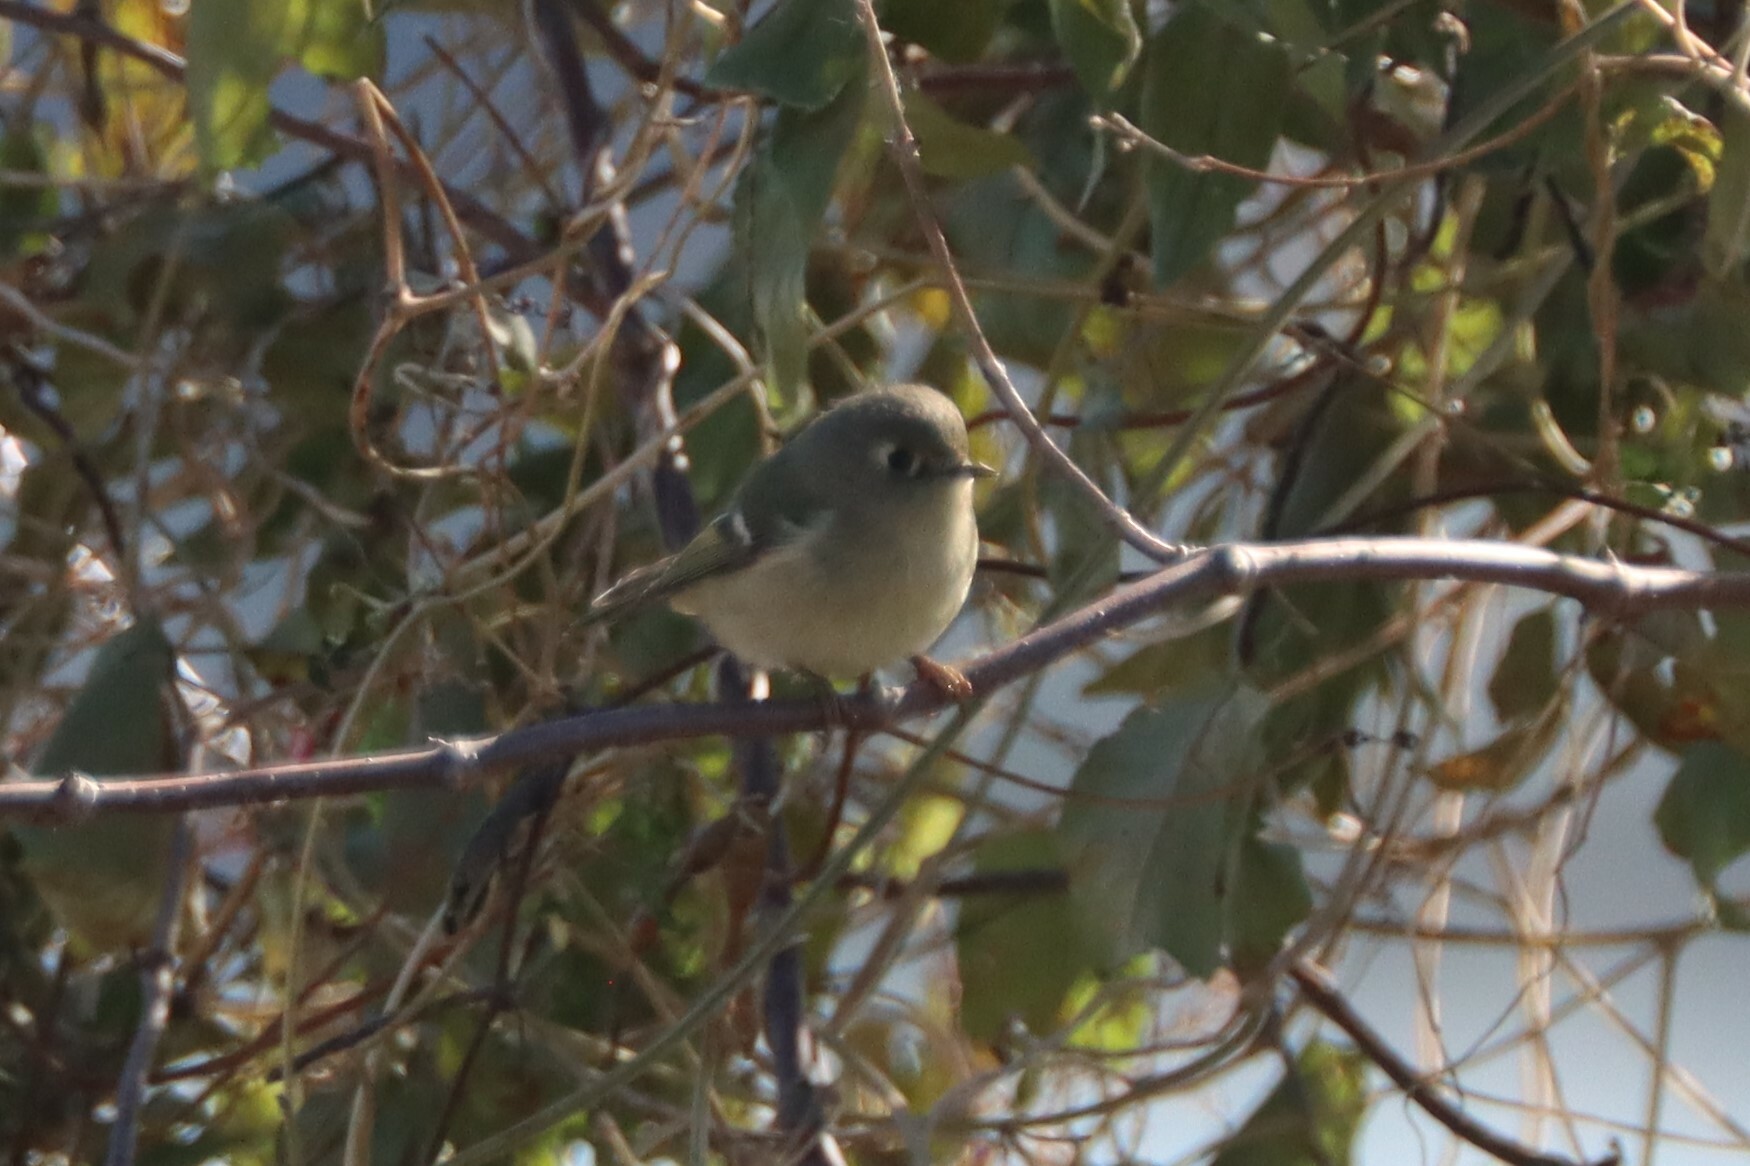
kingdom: Animalia
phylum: Chordata
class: Aves
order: Passeriformes
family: Regulidae
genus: Regulus
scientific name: Regulus calendula
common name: Ruby-crowned kinglet
